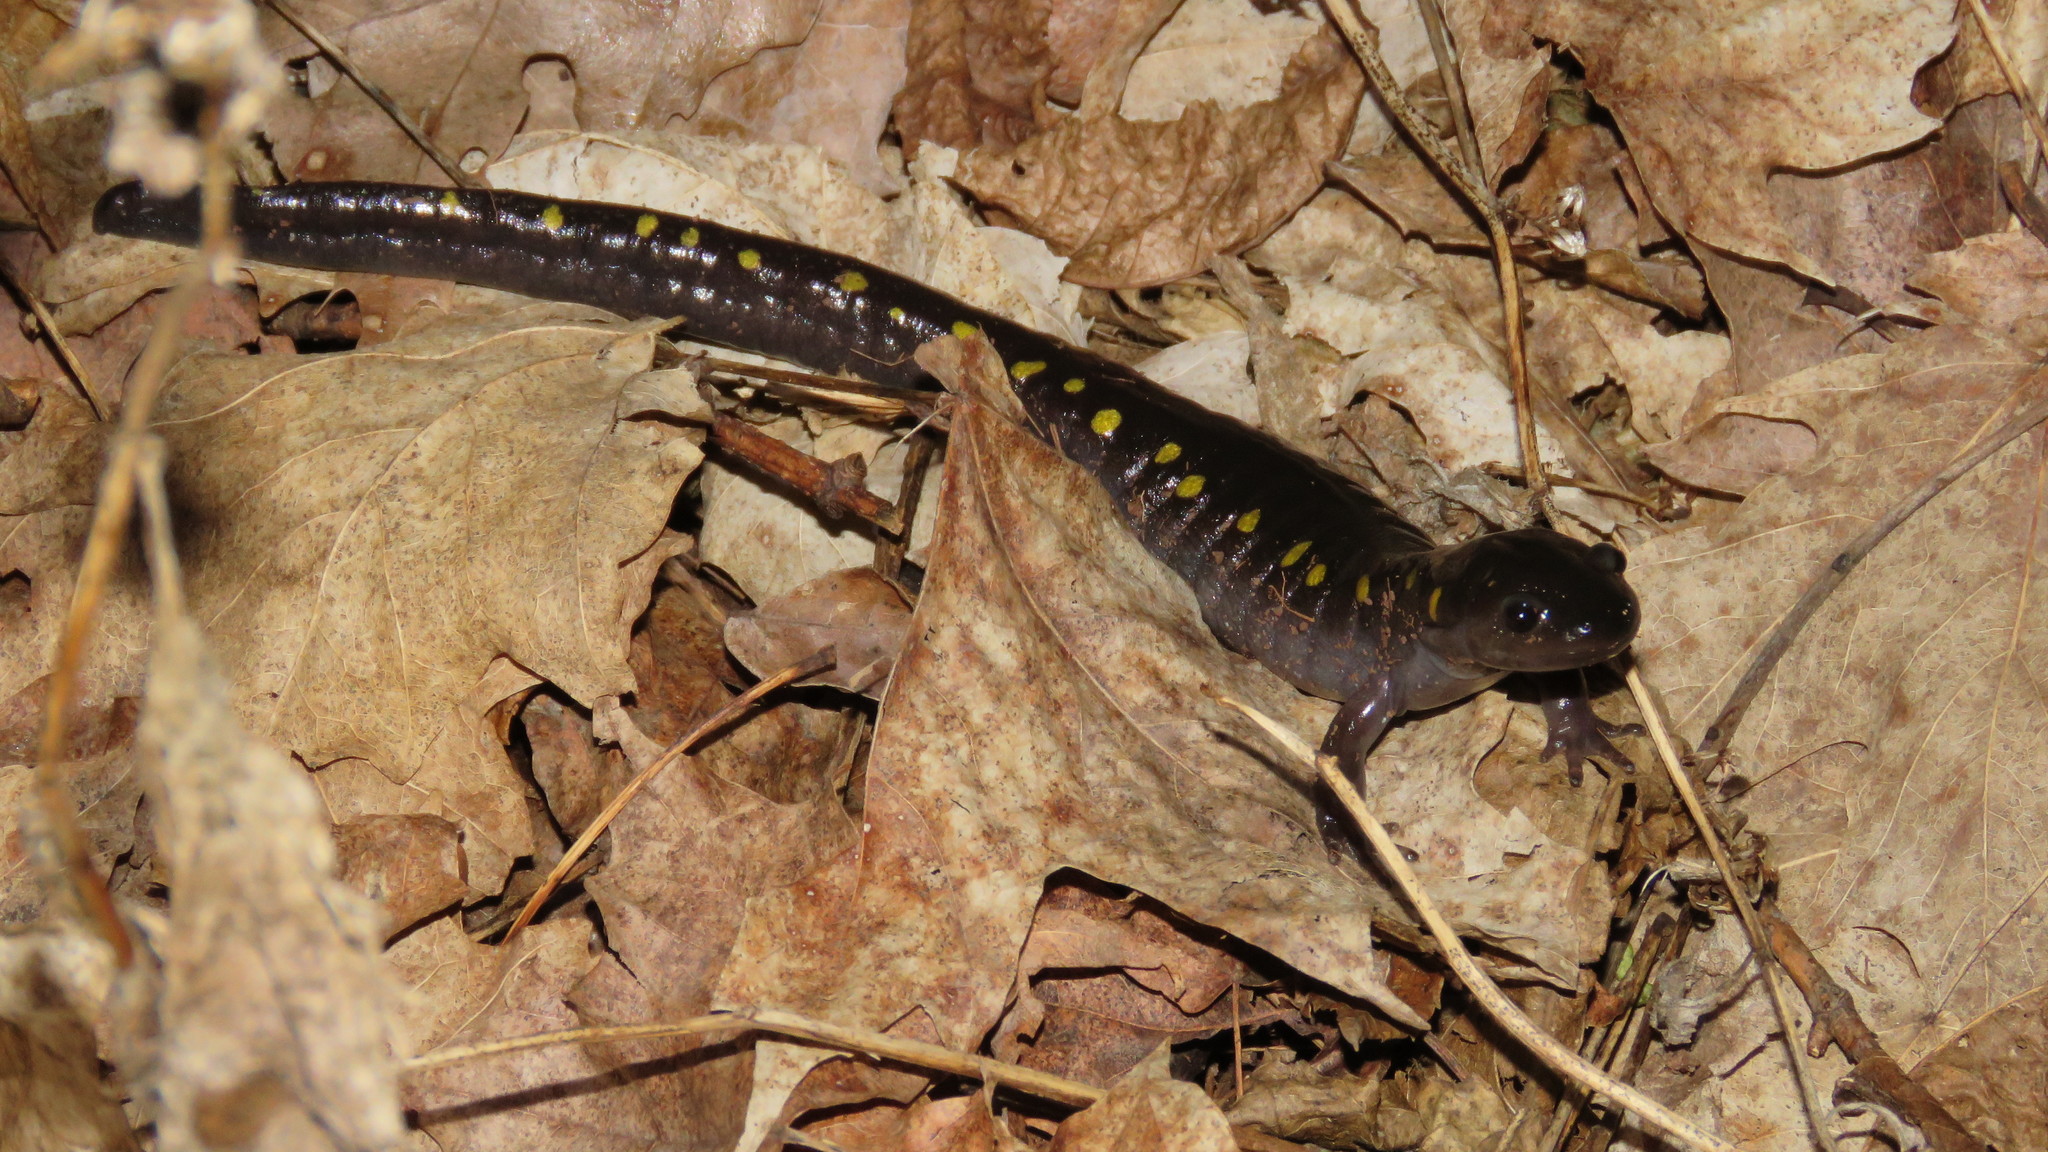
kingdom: Animalia
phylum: Chordata
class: Amphibia
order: Caudata
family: Ambystomatidae
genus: Ambystoma
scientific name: Ambystoma maculatum
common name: Spotted salamander
